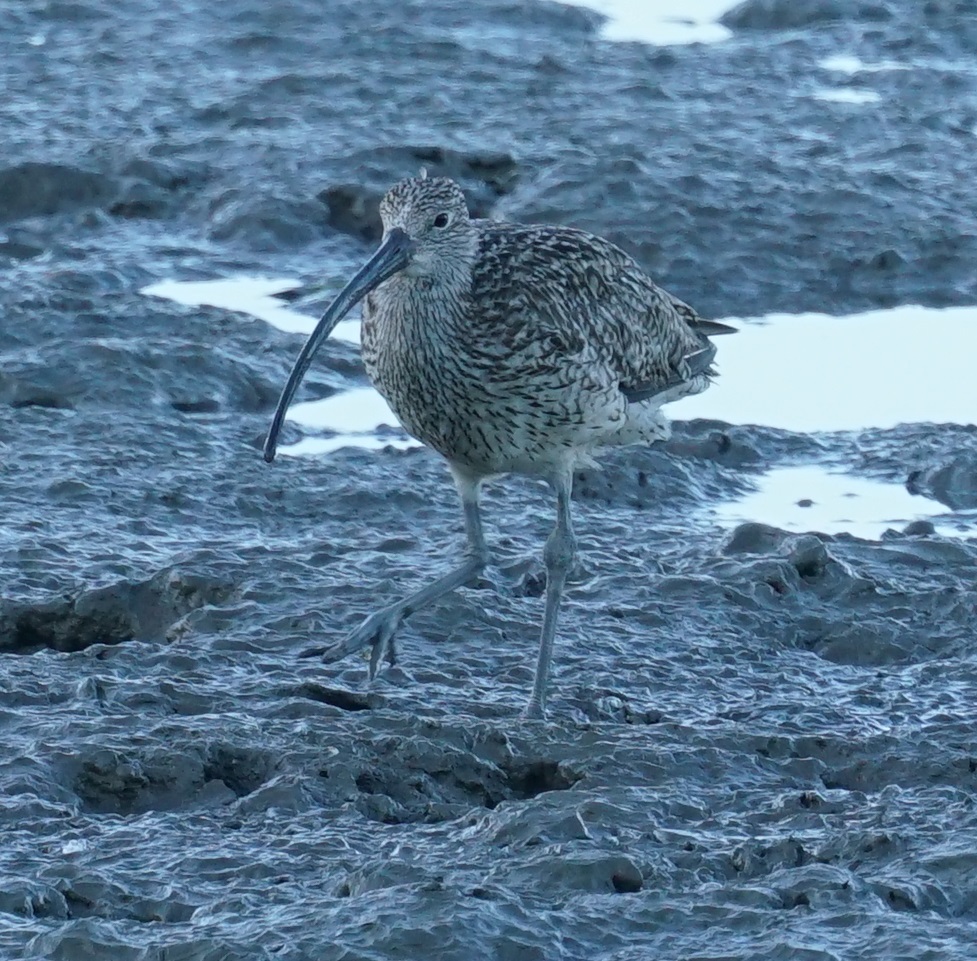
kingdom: Animalia
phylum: Chordata
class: Aves
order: Charadriiformes
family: Scolopacidae
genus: Numenius
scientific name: Numenius madagascariensis
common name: Far eastern curlew
